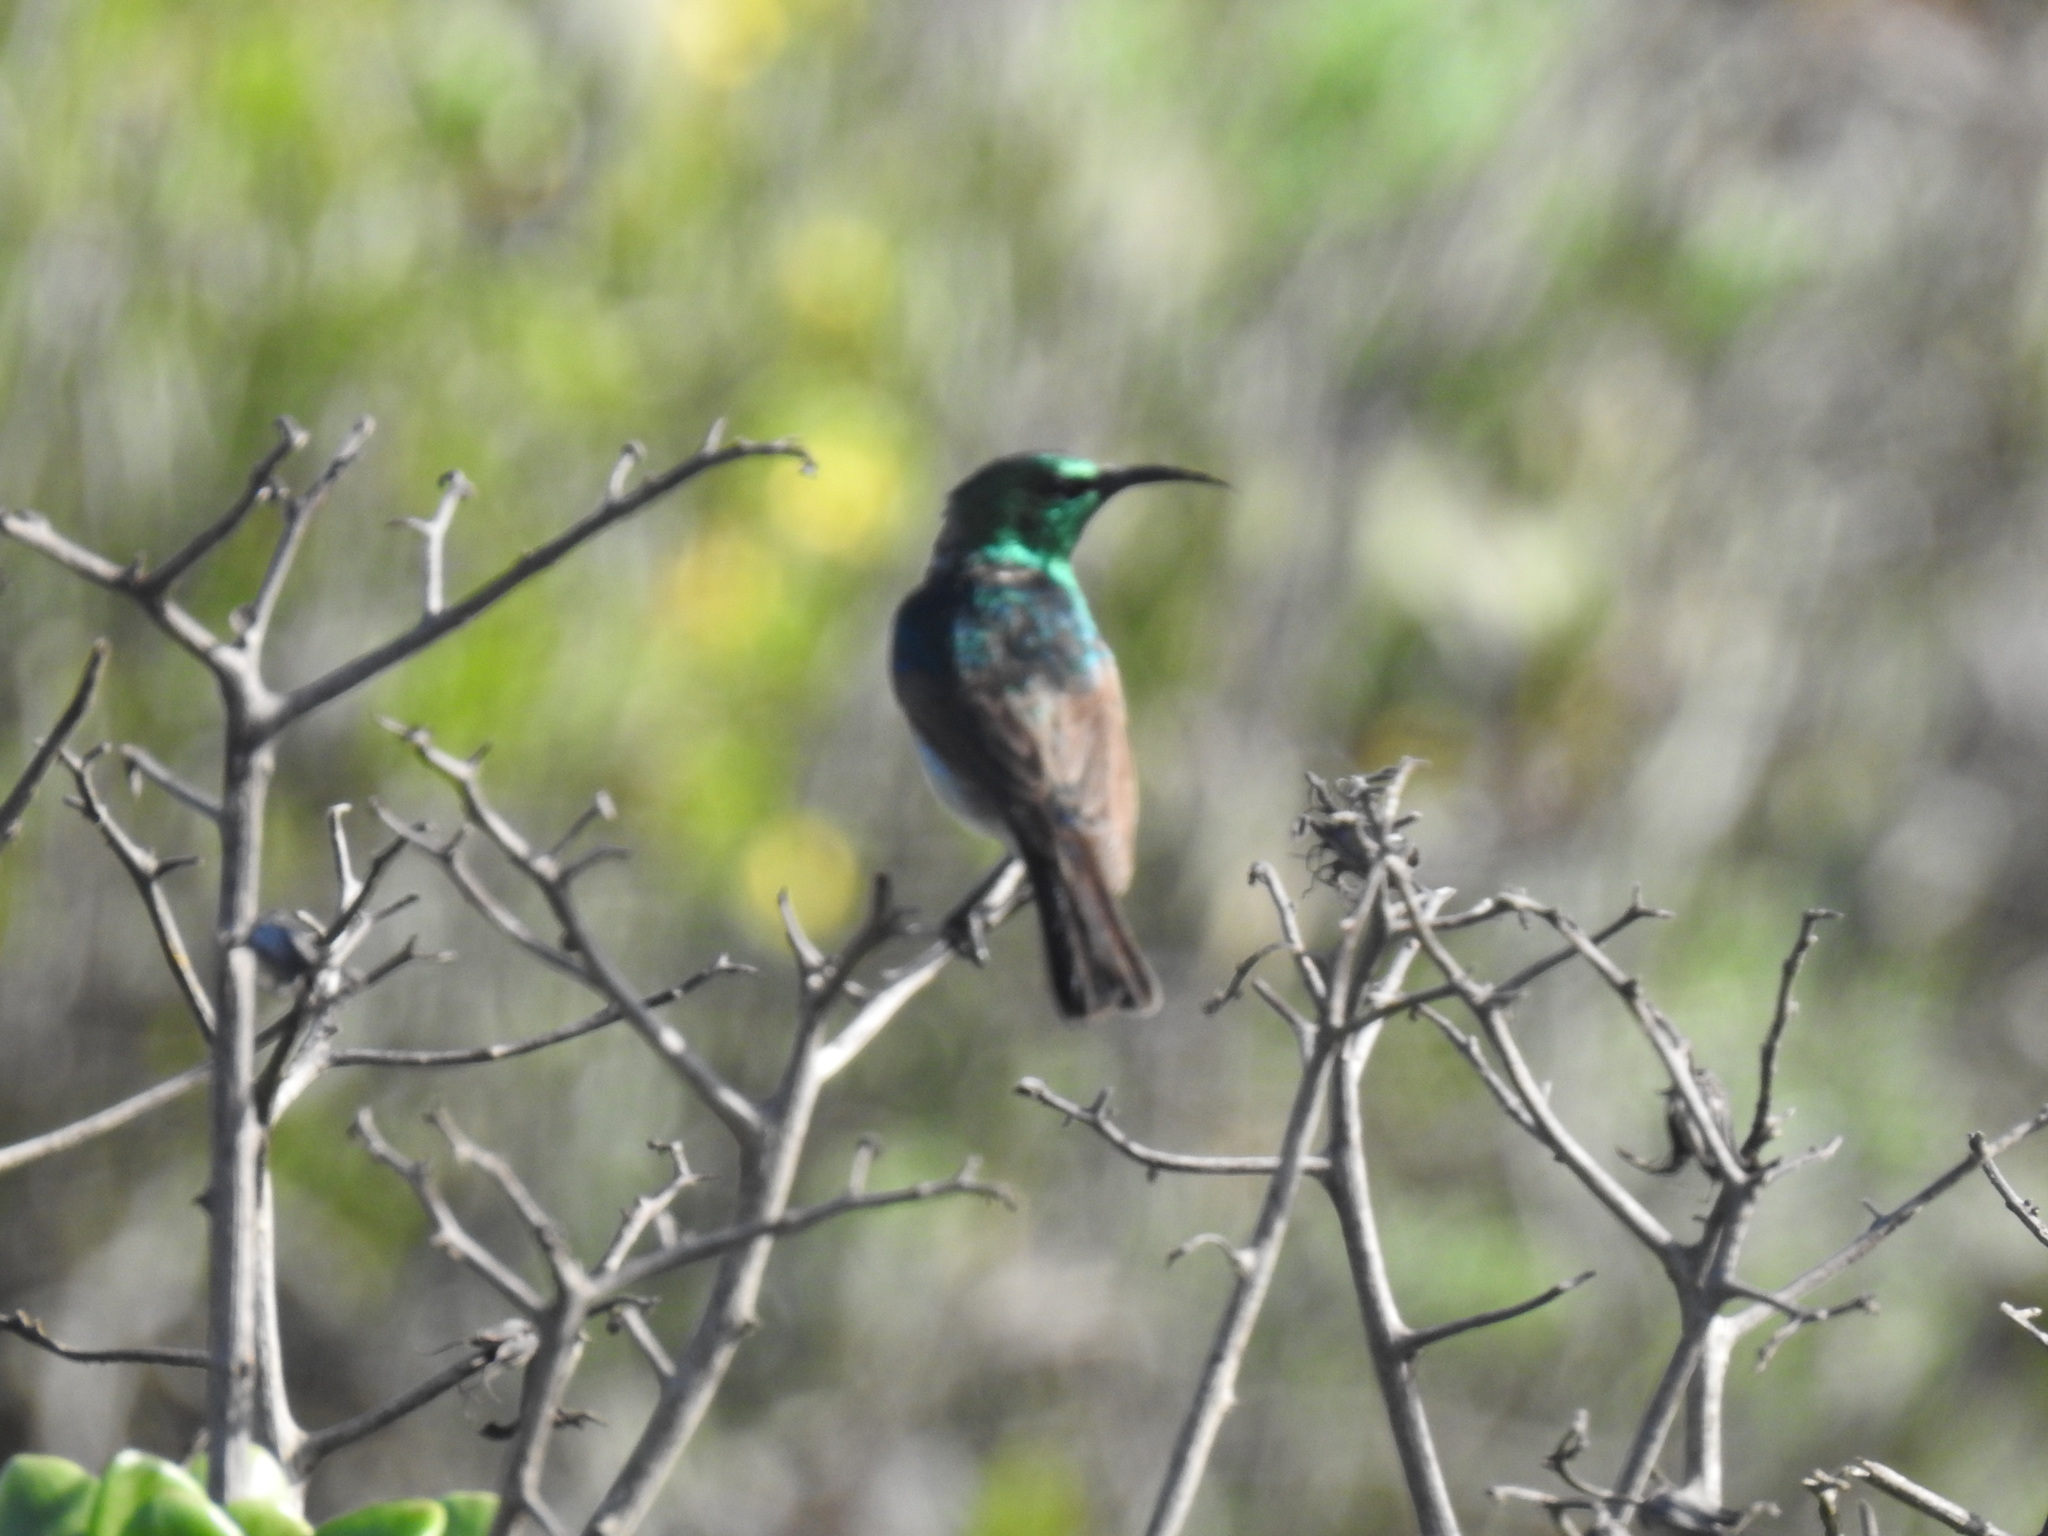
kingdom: Animalia
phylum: Chordata
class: Aves
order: Passeriformes
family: Nectariniidae
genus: Cinnyris
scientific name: Cinnyris chalybeus
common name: Southern double-collared sunbird
